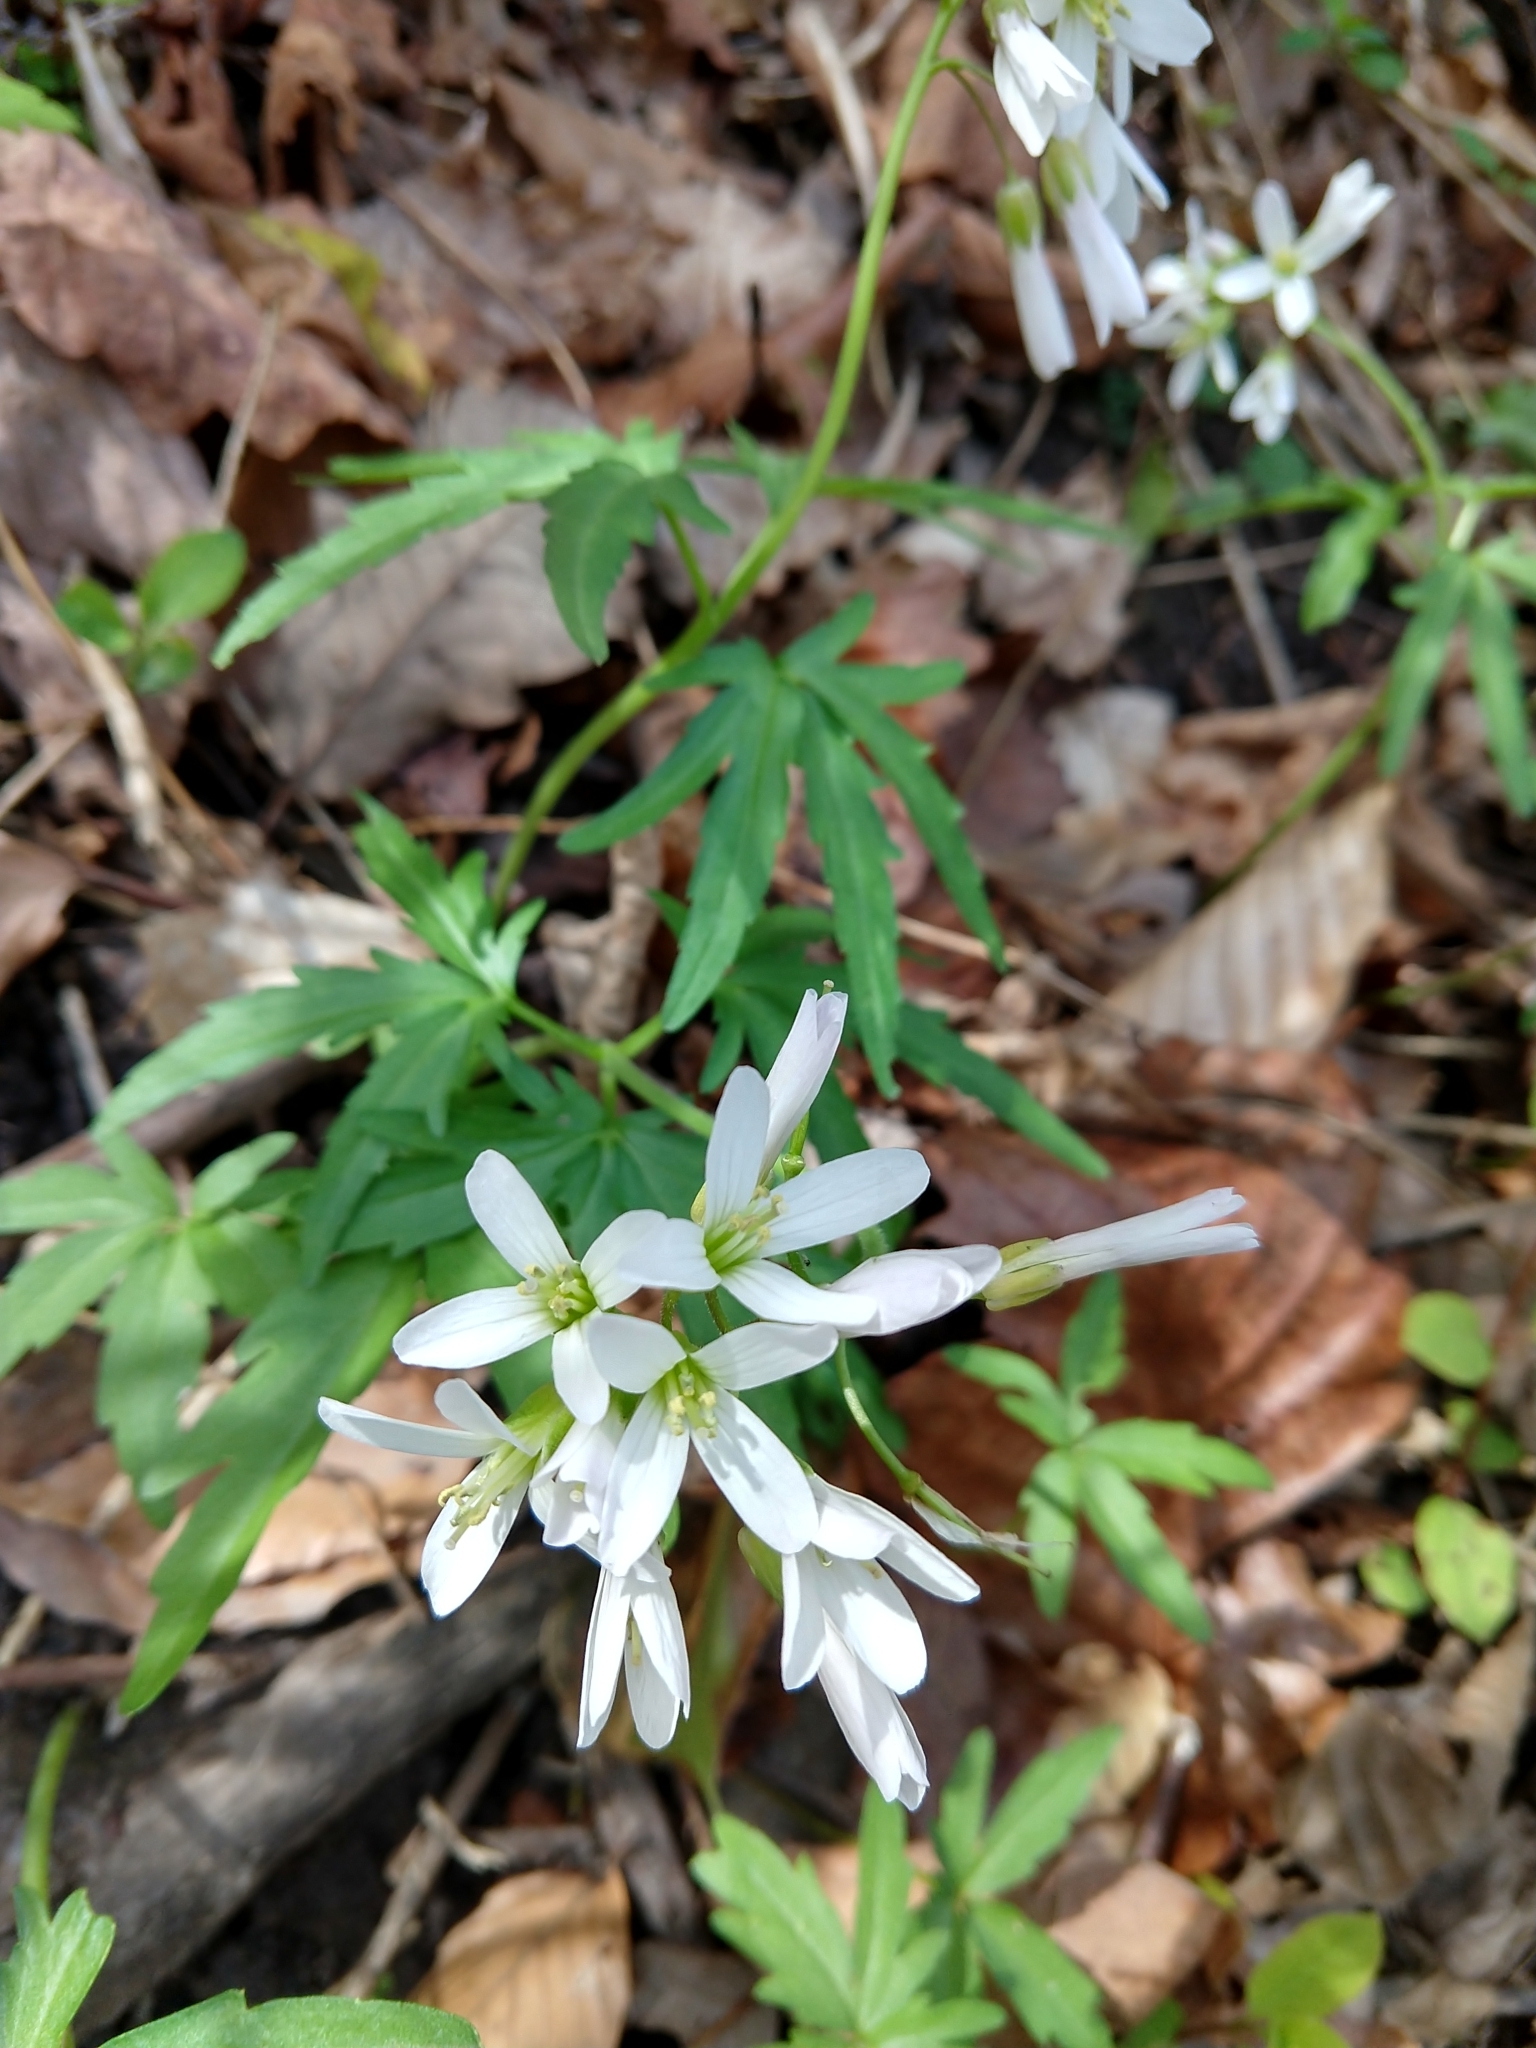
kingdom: Plantae
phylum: Tracheophyta
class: Magnoliopsida
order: Brassicales
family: Brassicaceae
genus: Cardamine
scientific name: Cardamine concatenata
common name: Cut-leaf toothcup
